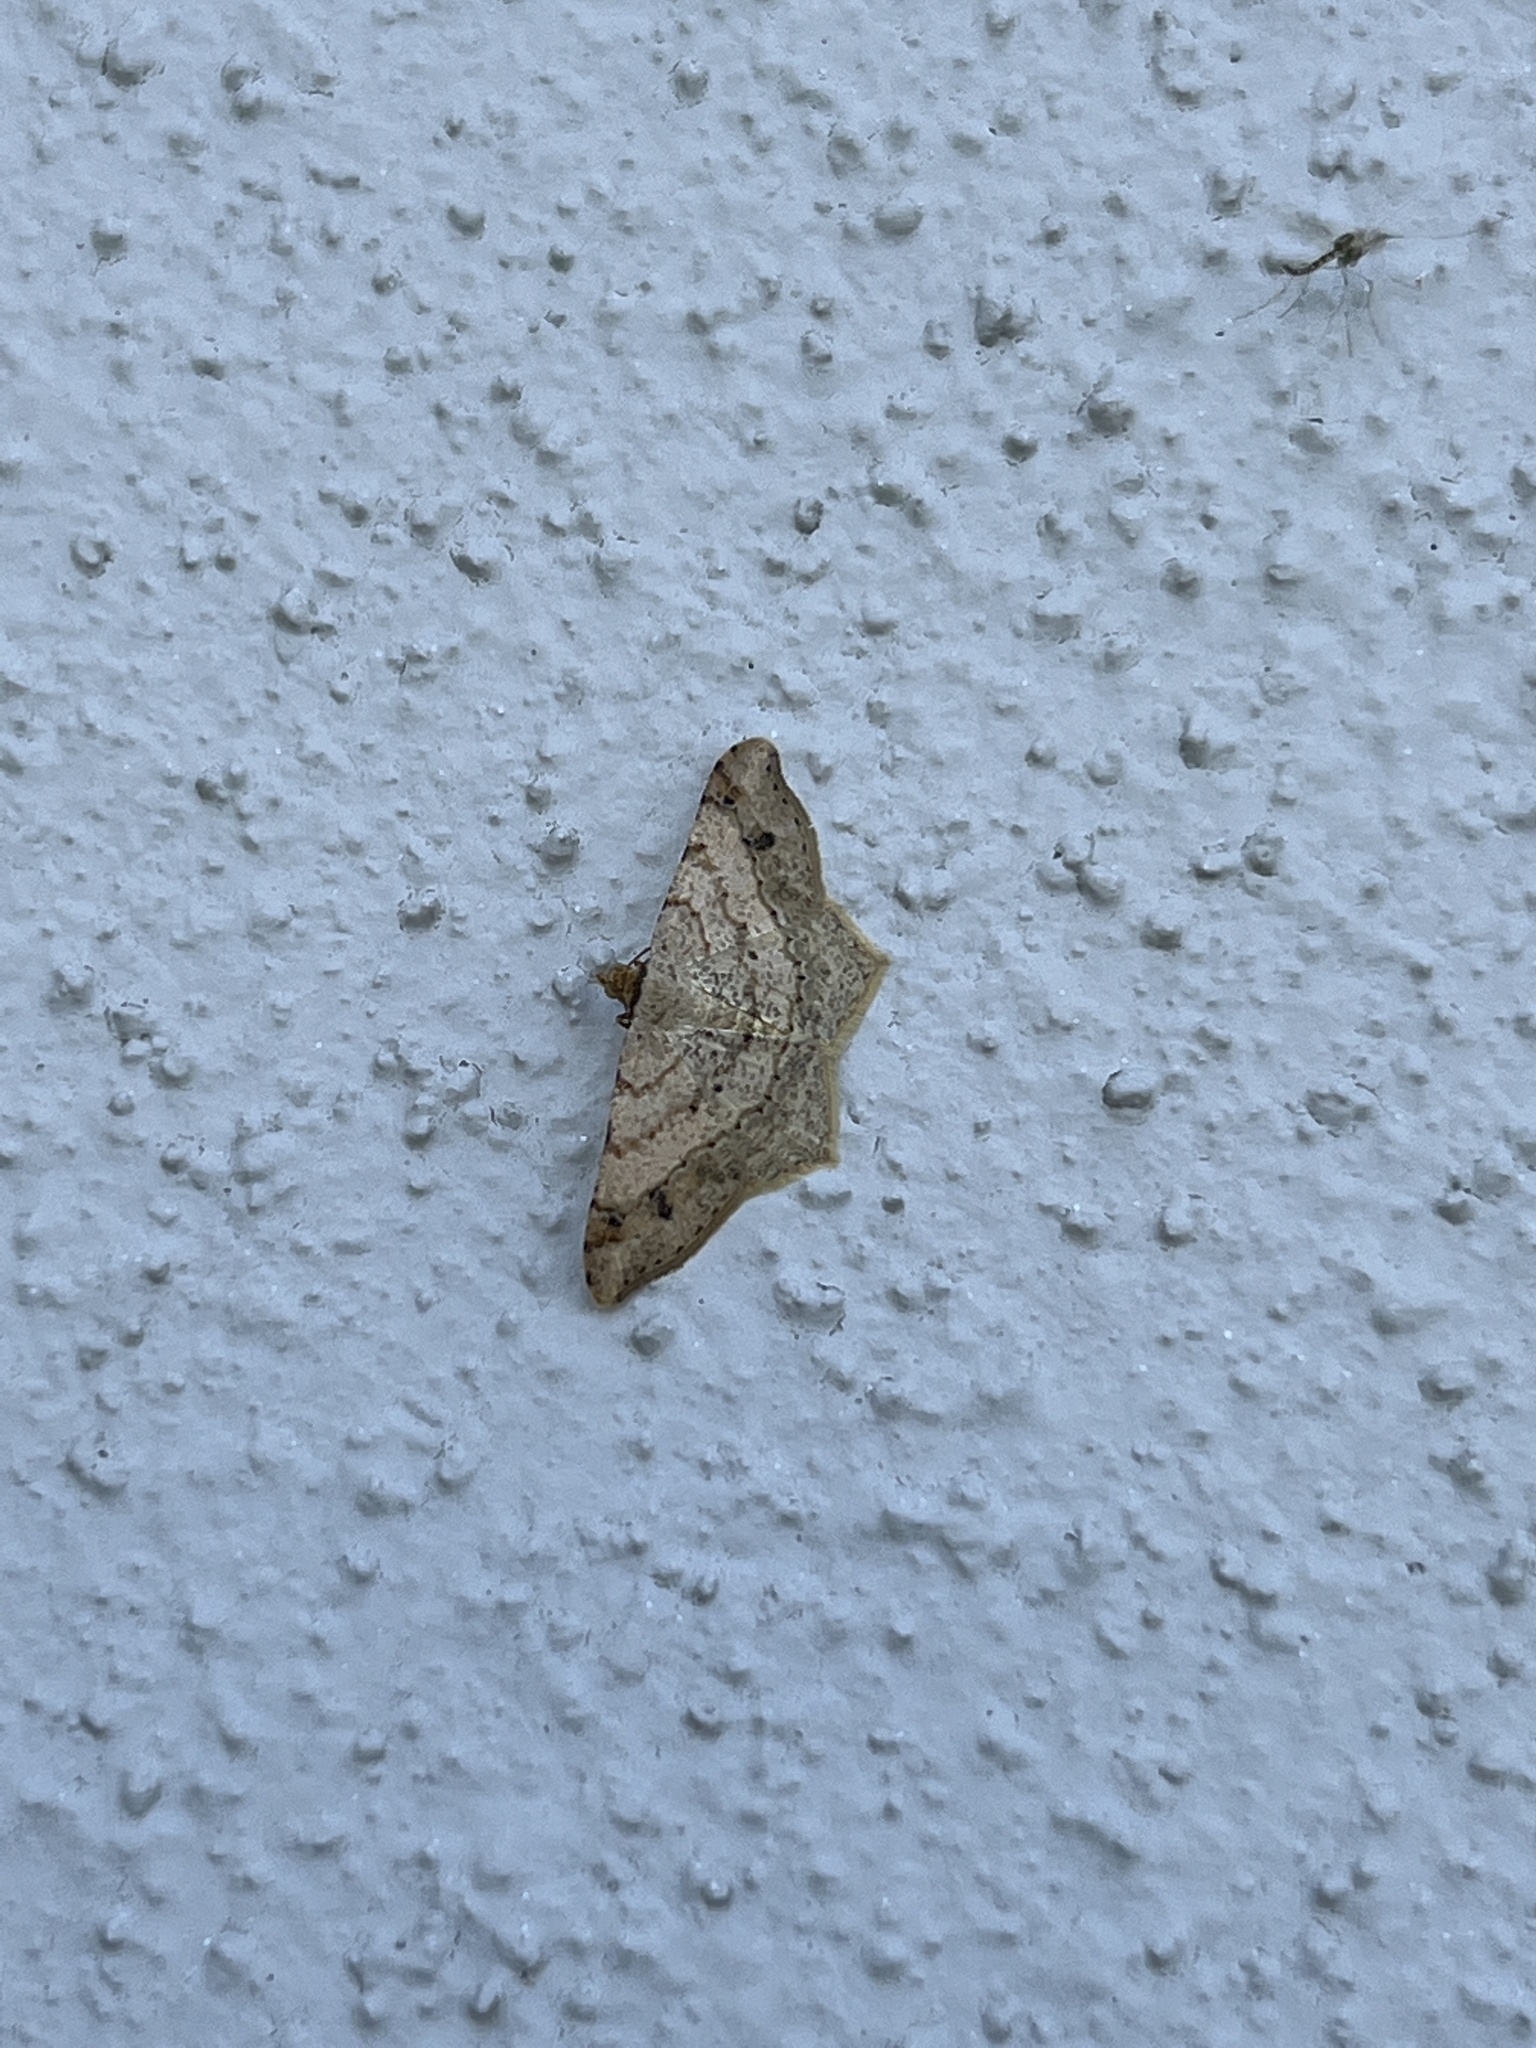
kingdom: Animalia
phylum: Arthropoda
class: Insecta
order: Lepidoptera
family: Geometridae
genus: Macaria
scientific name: Macaria abydata
